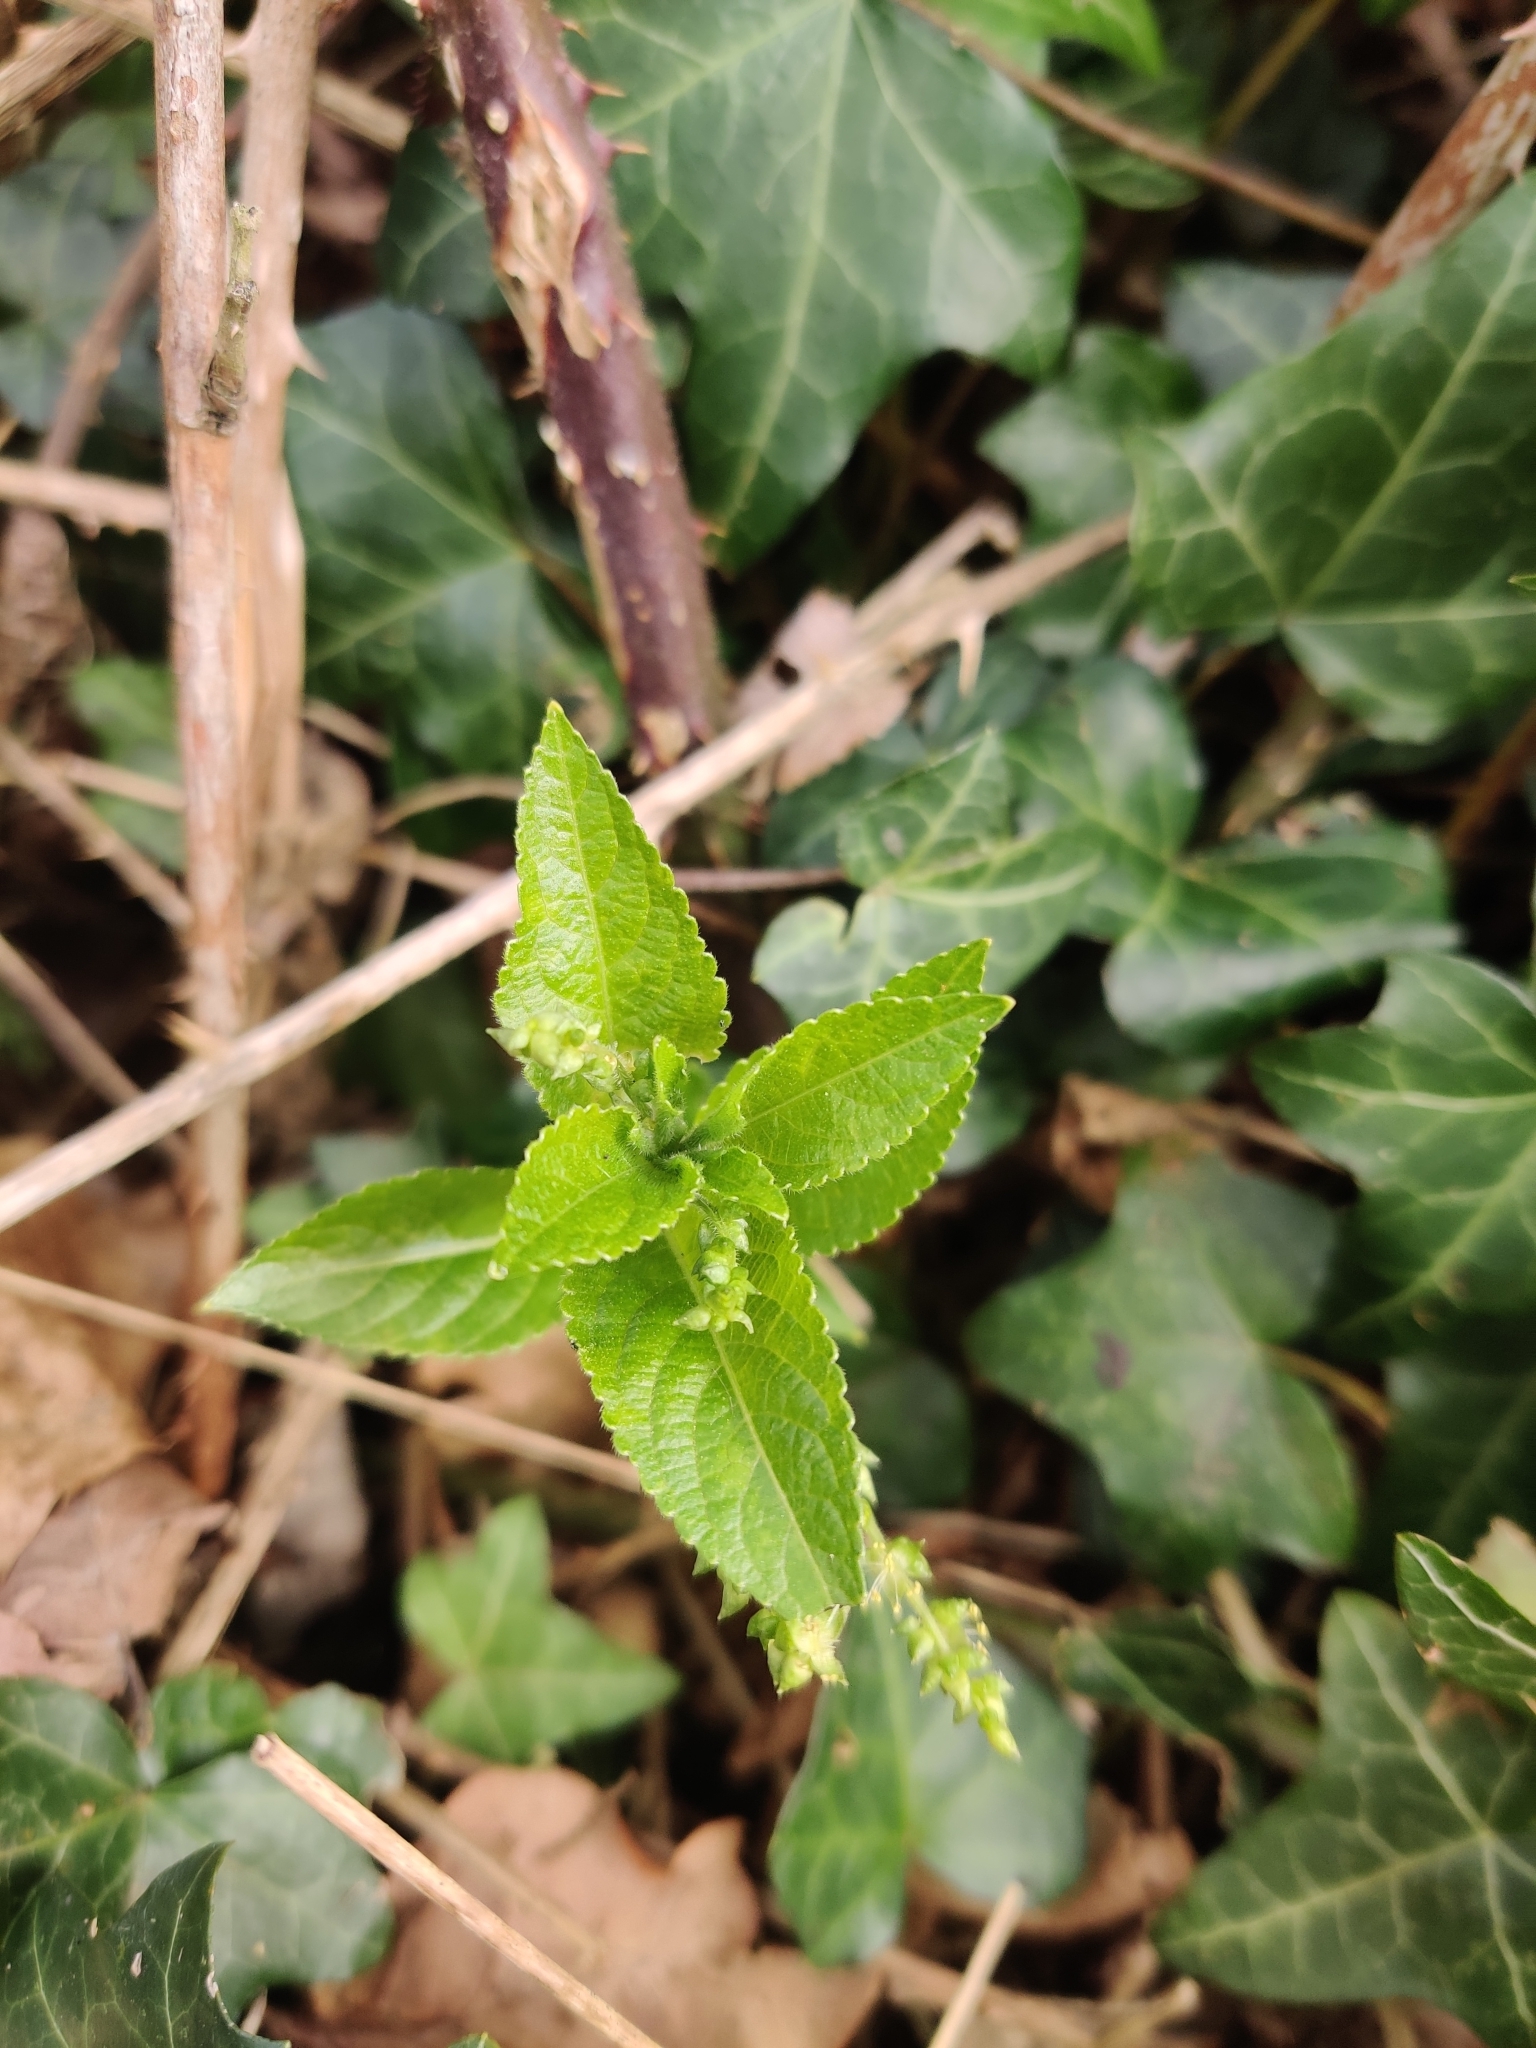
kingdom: Plantae
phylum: Tracheophyta
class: Magnoliopsida
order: Malpighiales
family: Euphorbiaceae
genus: Mercurialis
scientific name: Mercurialis perennis
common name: Dog mercury
